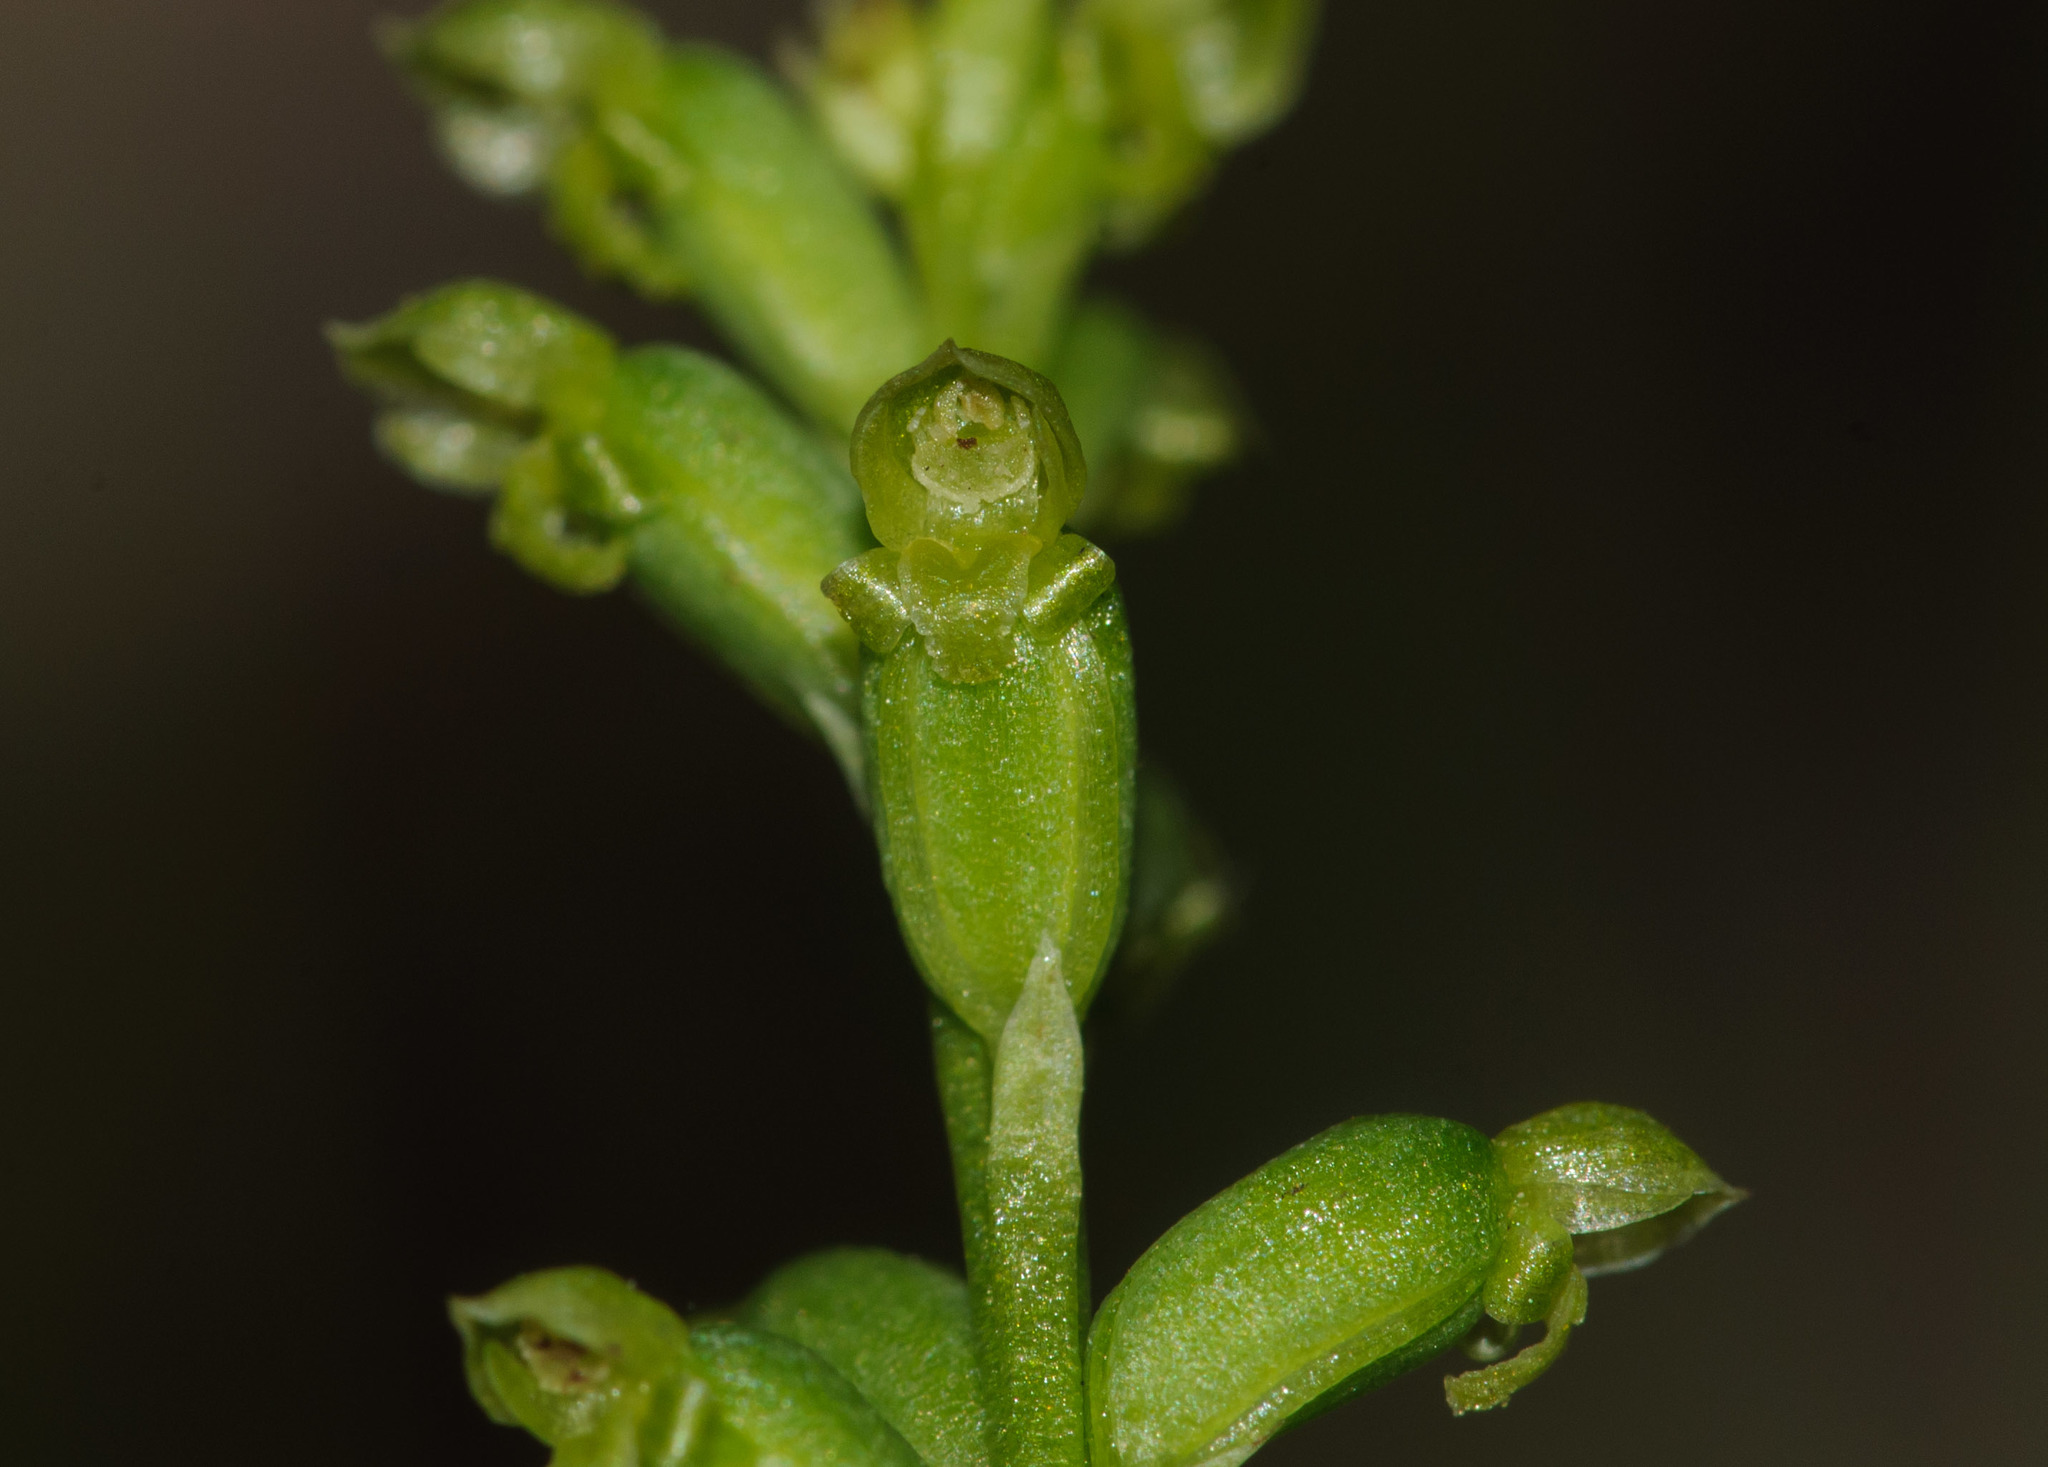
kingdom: Plantae
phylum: Tracheophyta
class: Liliopsida
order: Asparagales
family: Orchidaceae
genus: Microtis
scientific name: Microtis parviflora
